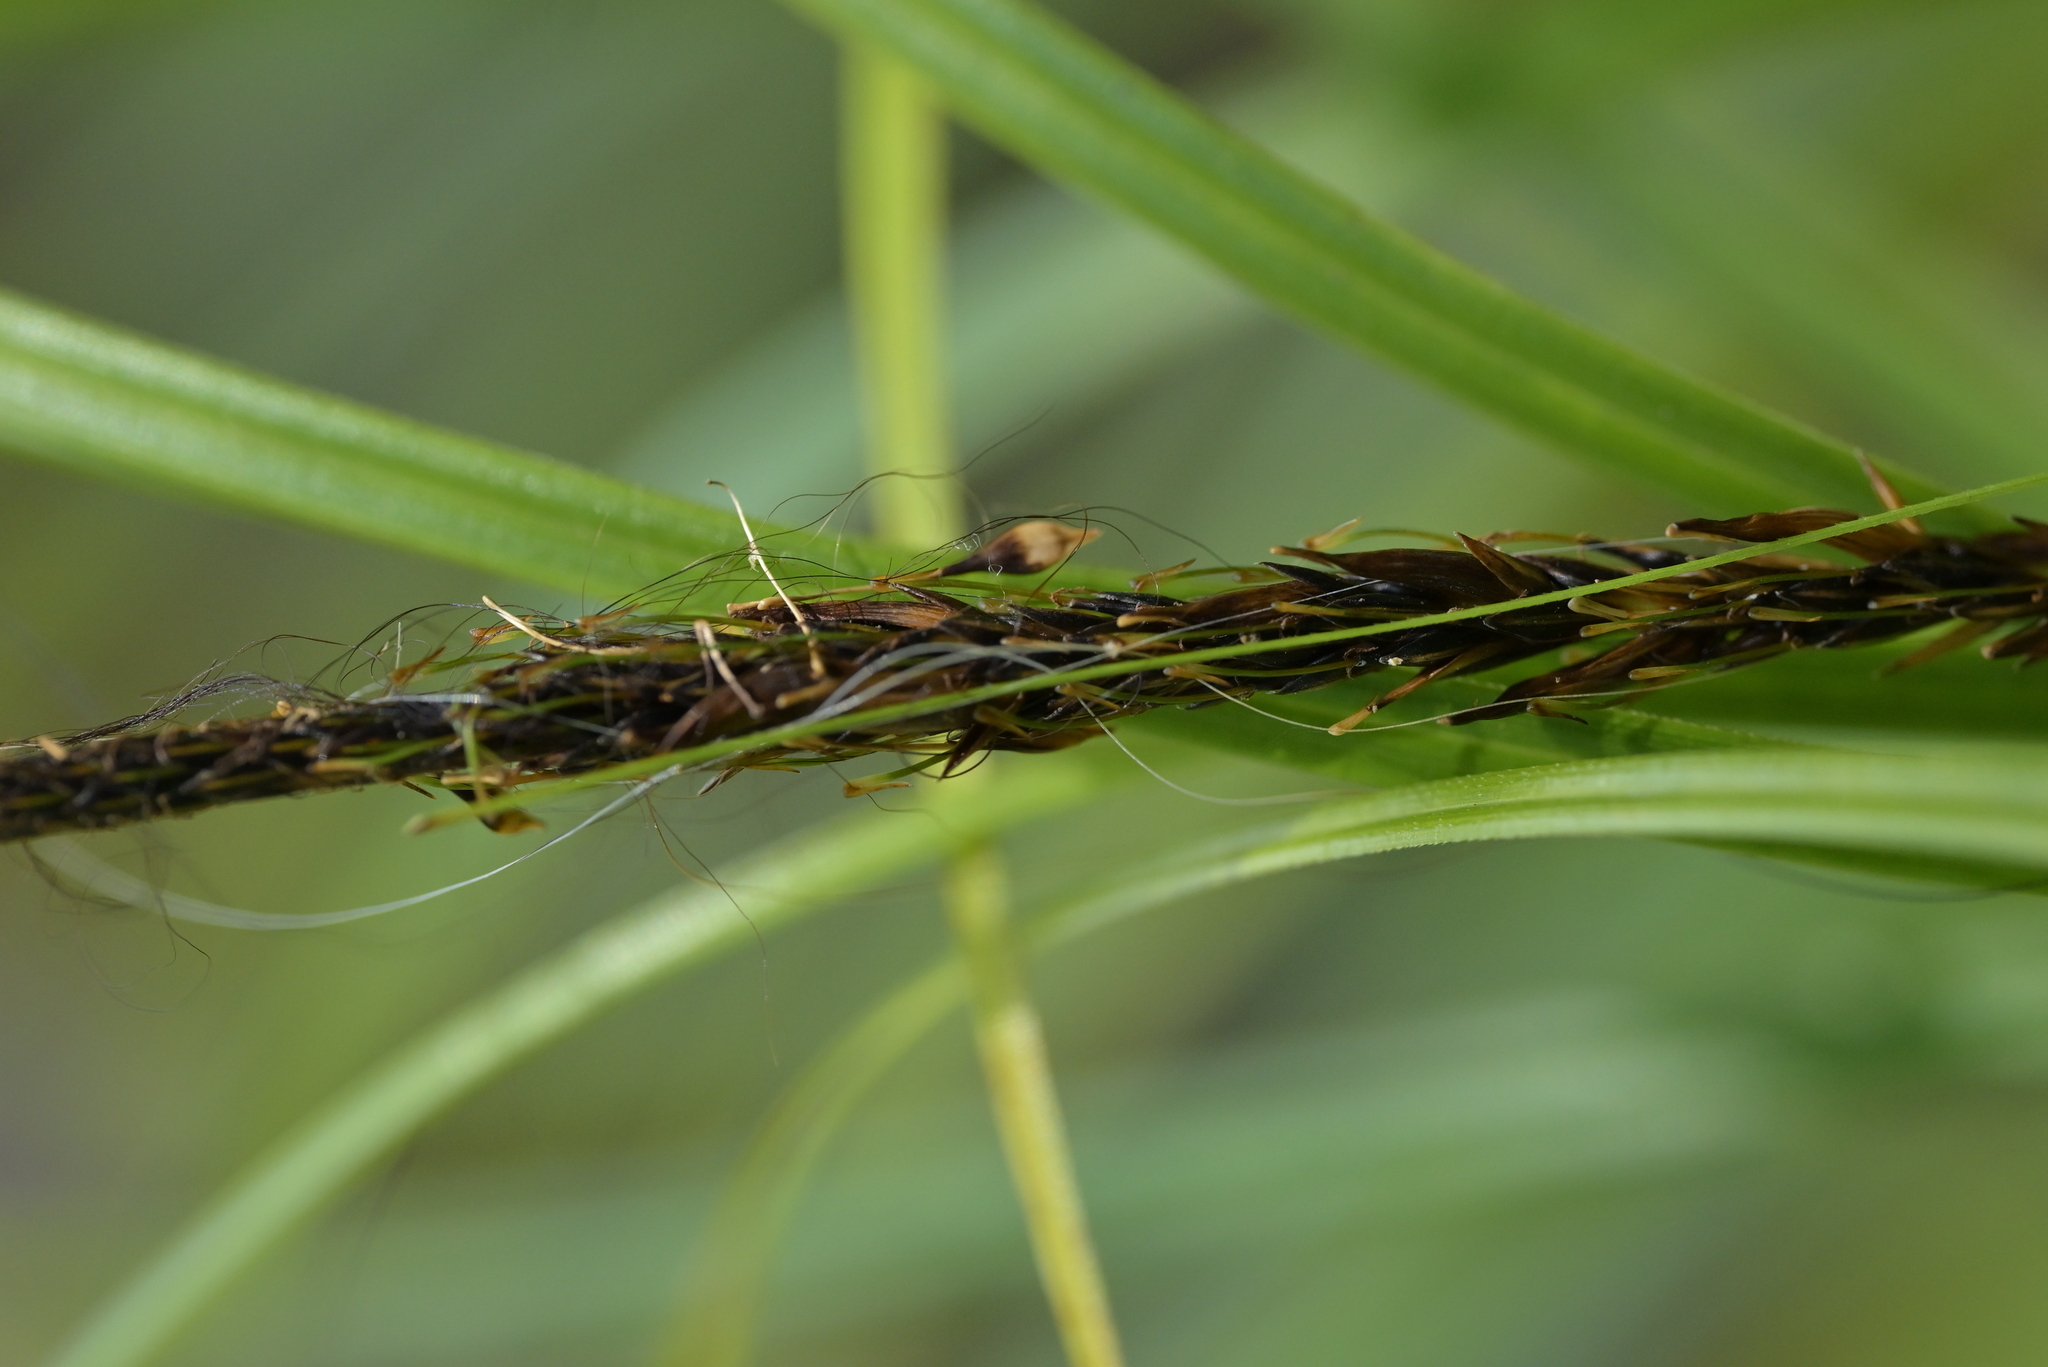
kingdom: Plantae
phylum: Tracheophyta
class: Liliopsida
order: Poales
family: Cyperaceae
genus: Carex
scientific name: Carex uncinata
